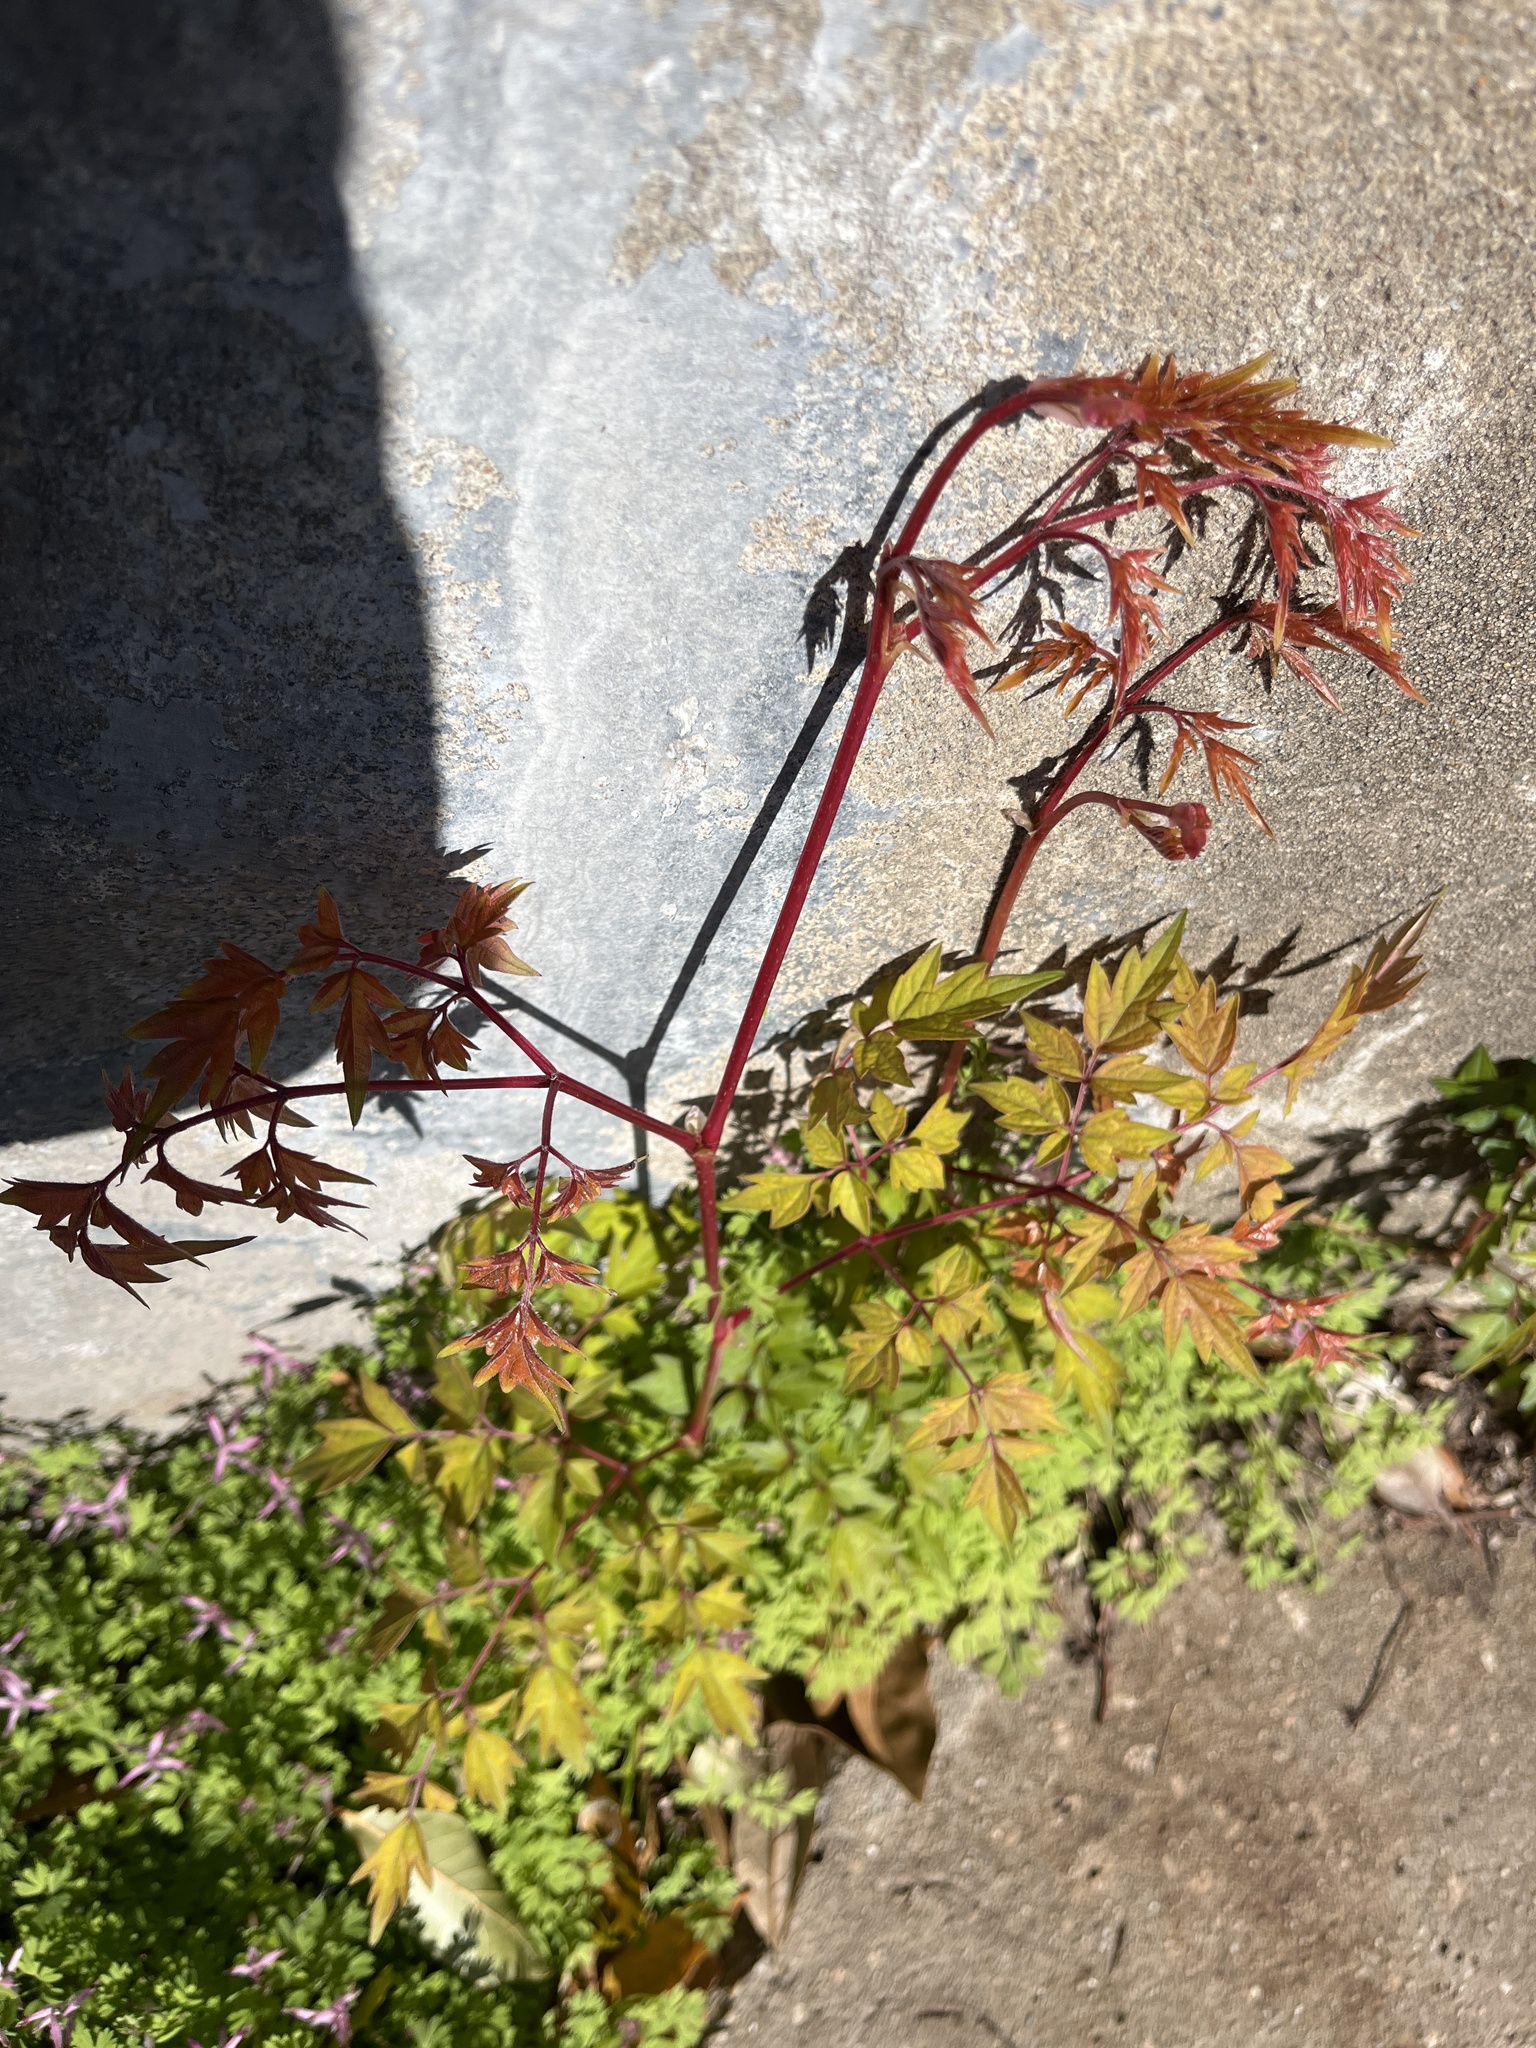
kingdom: Plantae
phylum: Tracheophyta
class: Magnoliopsida
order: Vitales
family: Vitaceae
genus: Nekemias
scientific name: Nekemias arborea
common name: Peppervine
